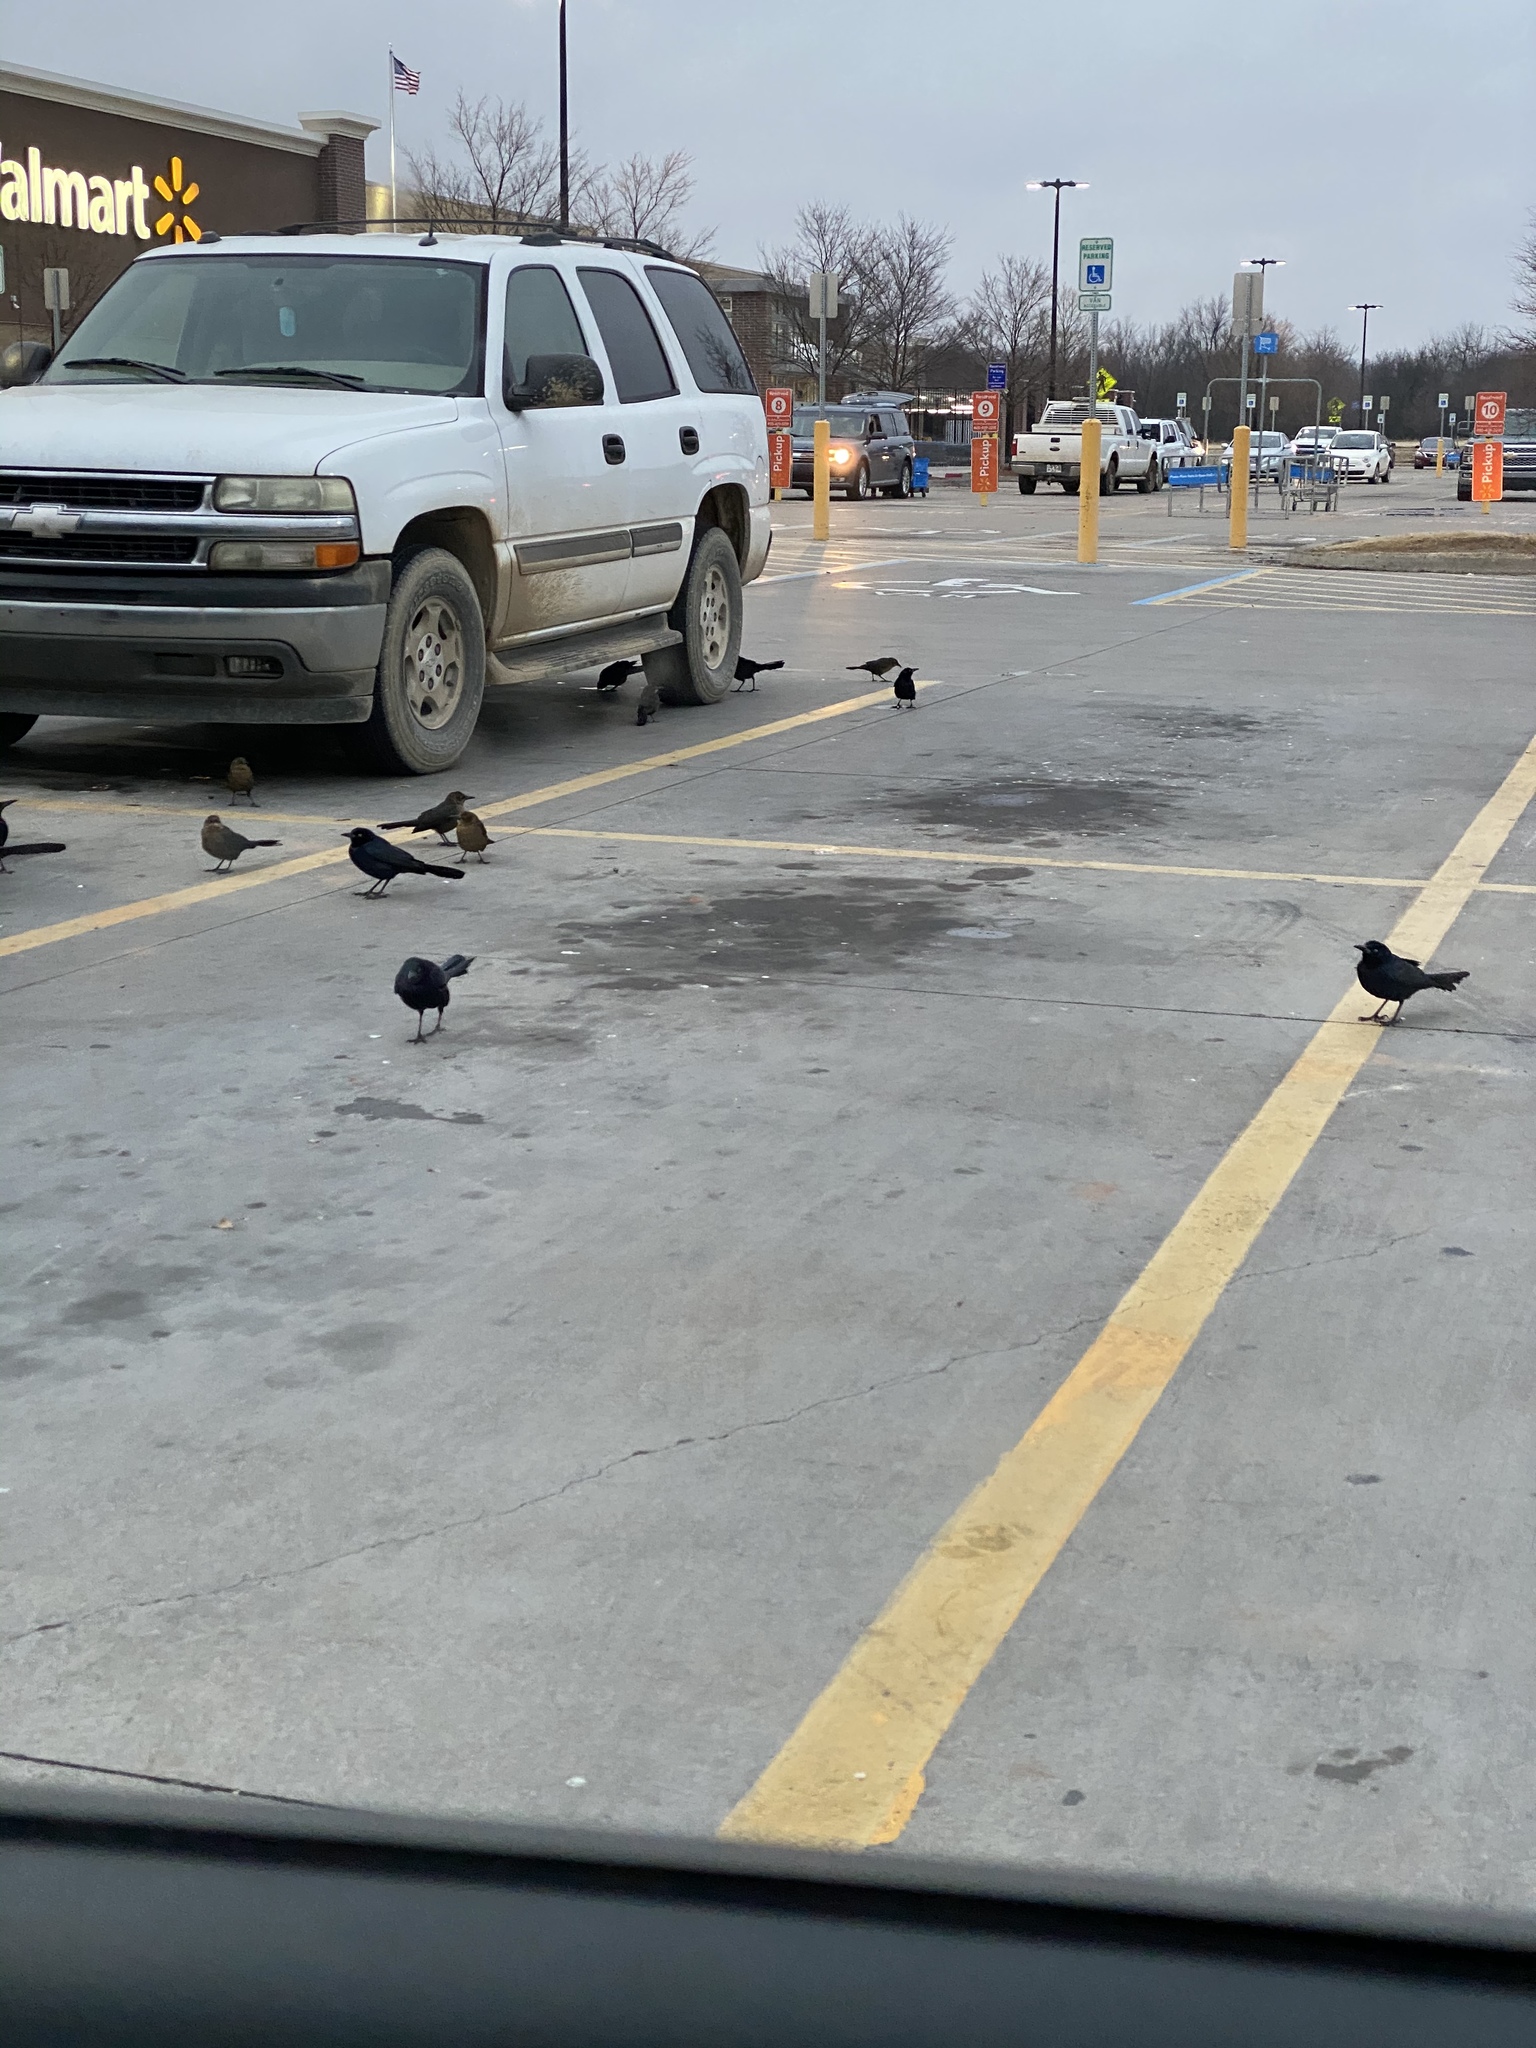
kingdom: Animalia
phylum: Chordata
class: Aves
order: Passeriformes
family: Icteridae
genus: Quiscalus
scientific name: Quiscalus mexicanus
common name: Great-tailed grackle
